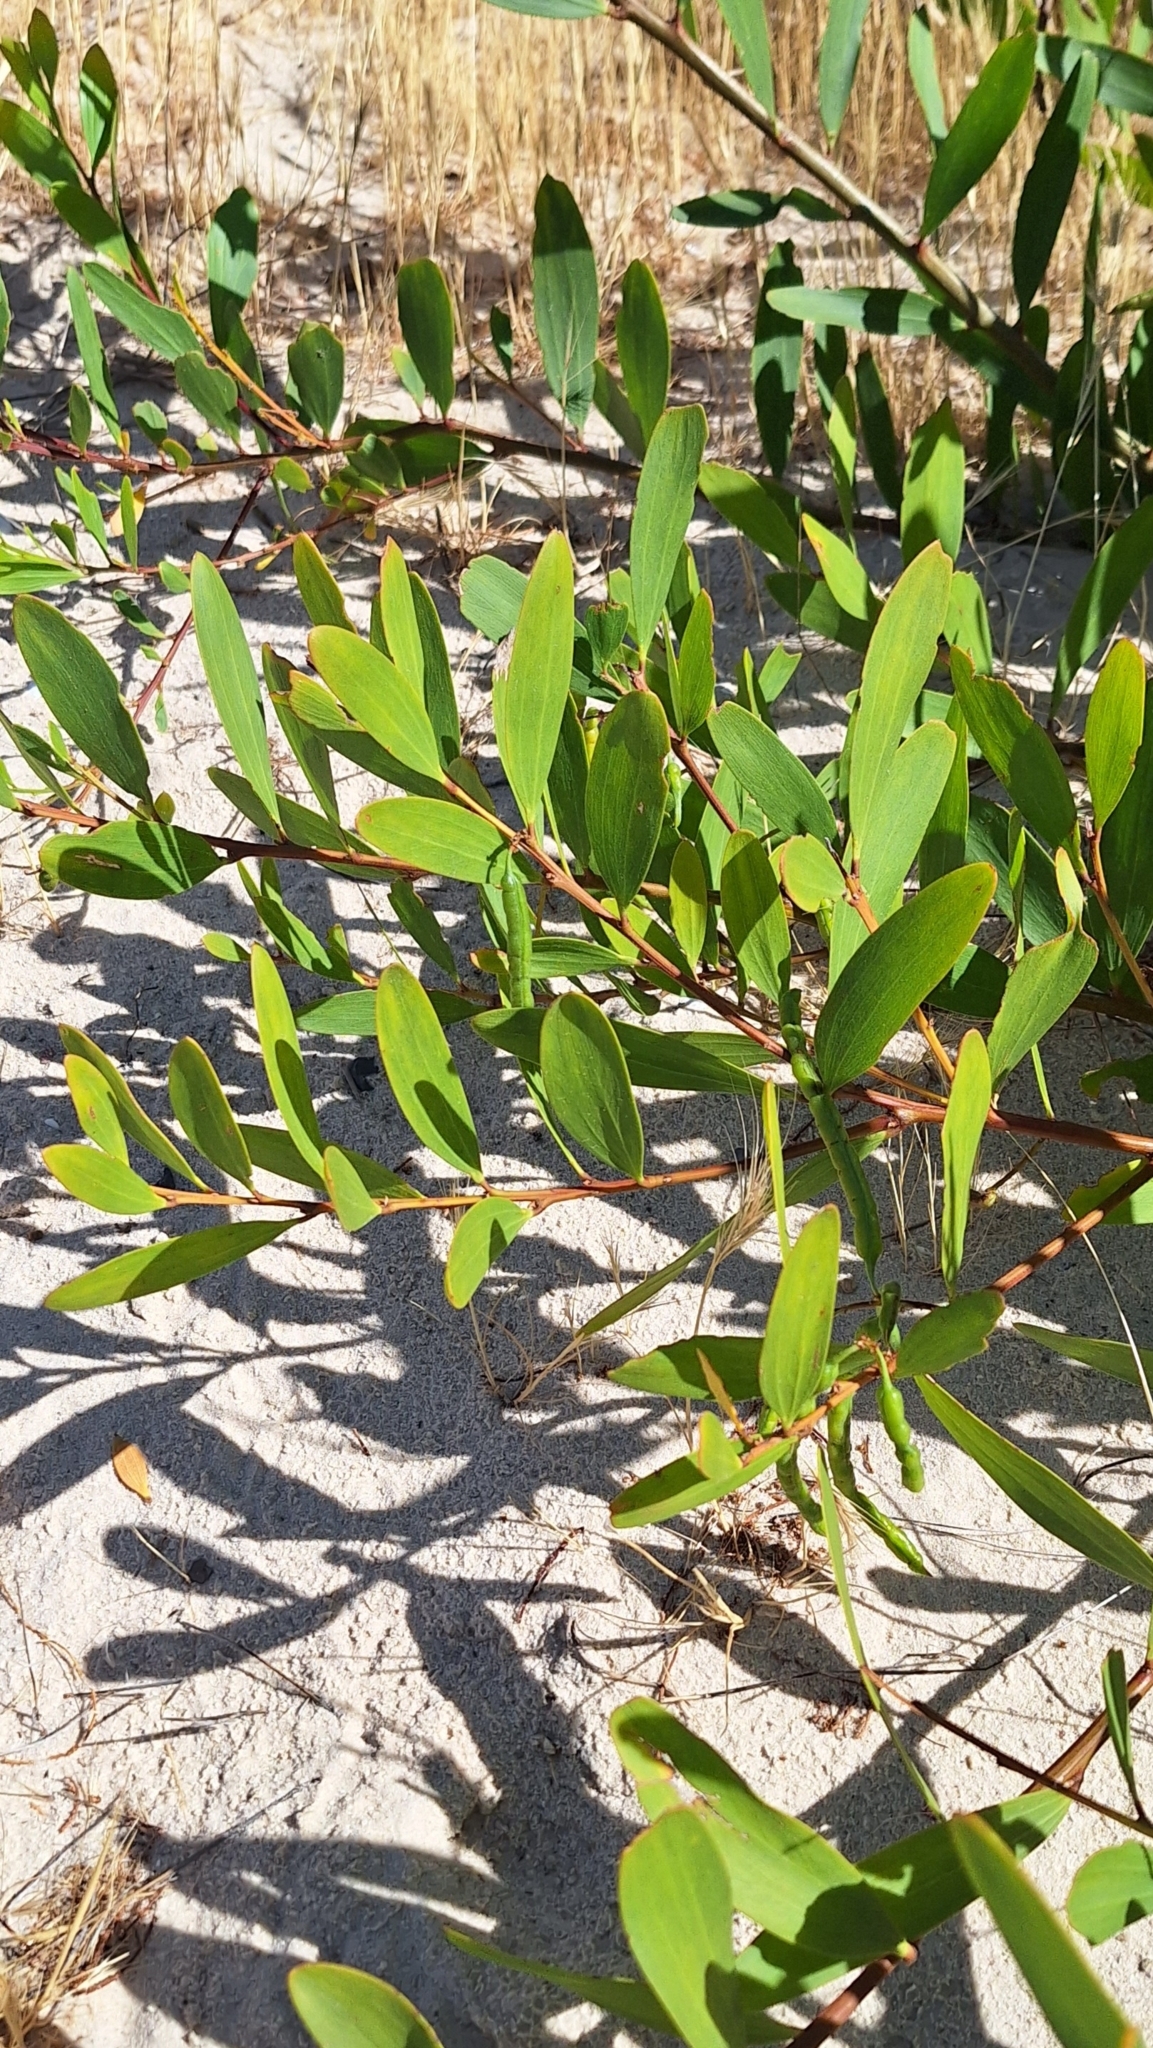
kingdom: Plantae
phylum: Tracheophyta
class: Magnoliopsida
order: Fabales
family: Fabaceae
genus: Acacia
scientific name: Acacia longifolia
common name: Sydney golden wattle
